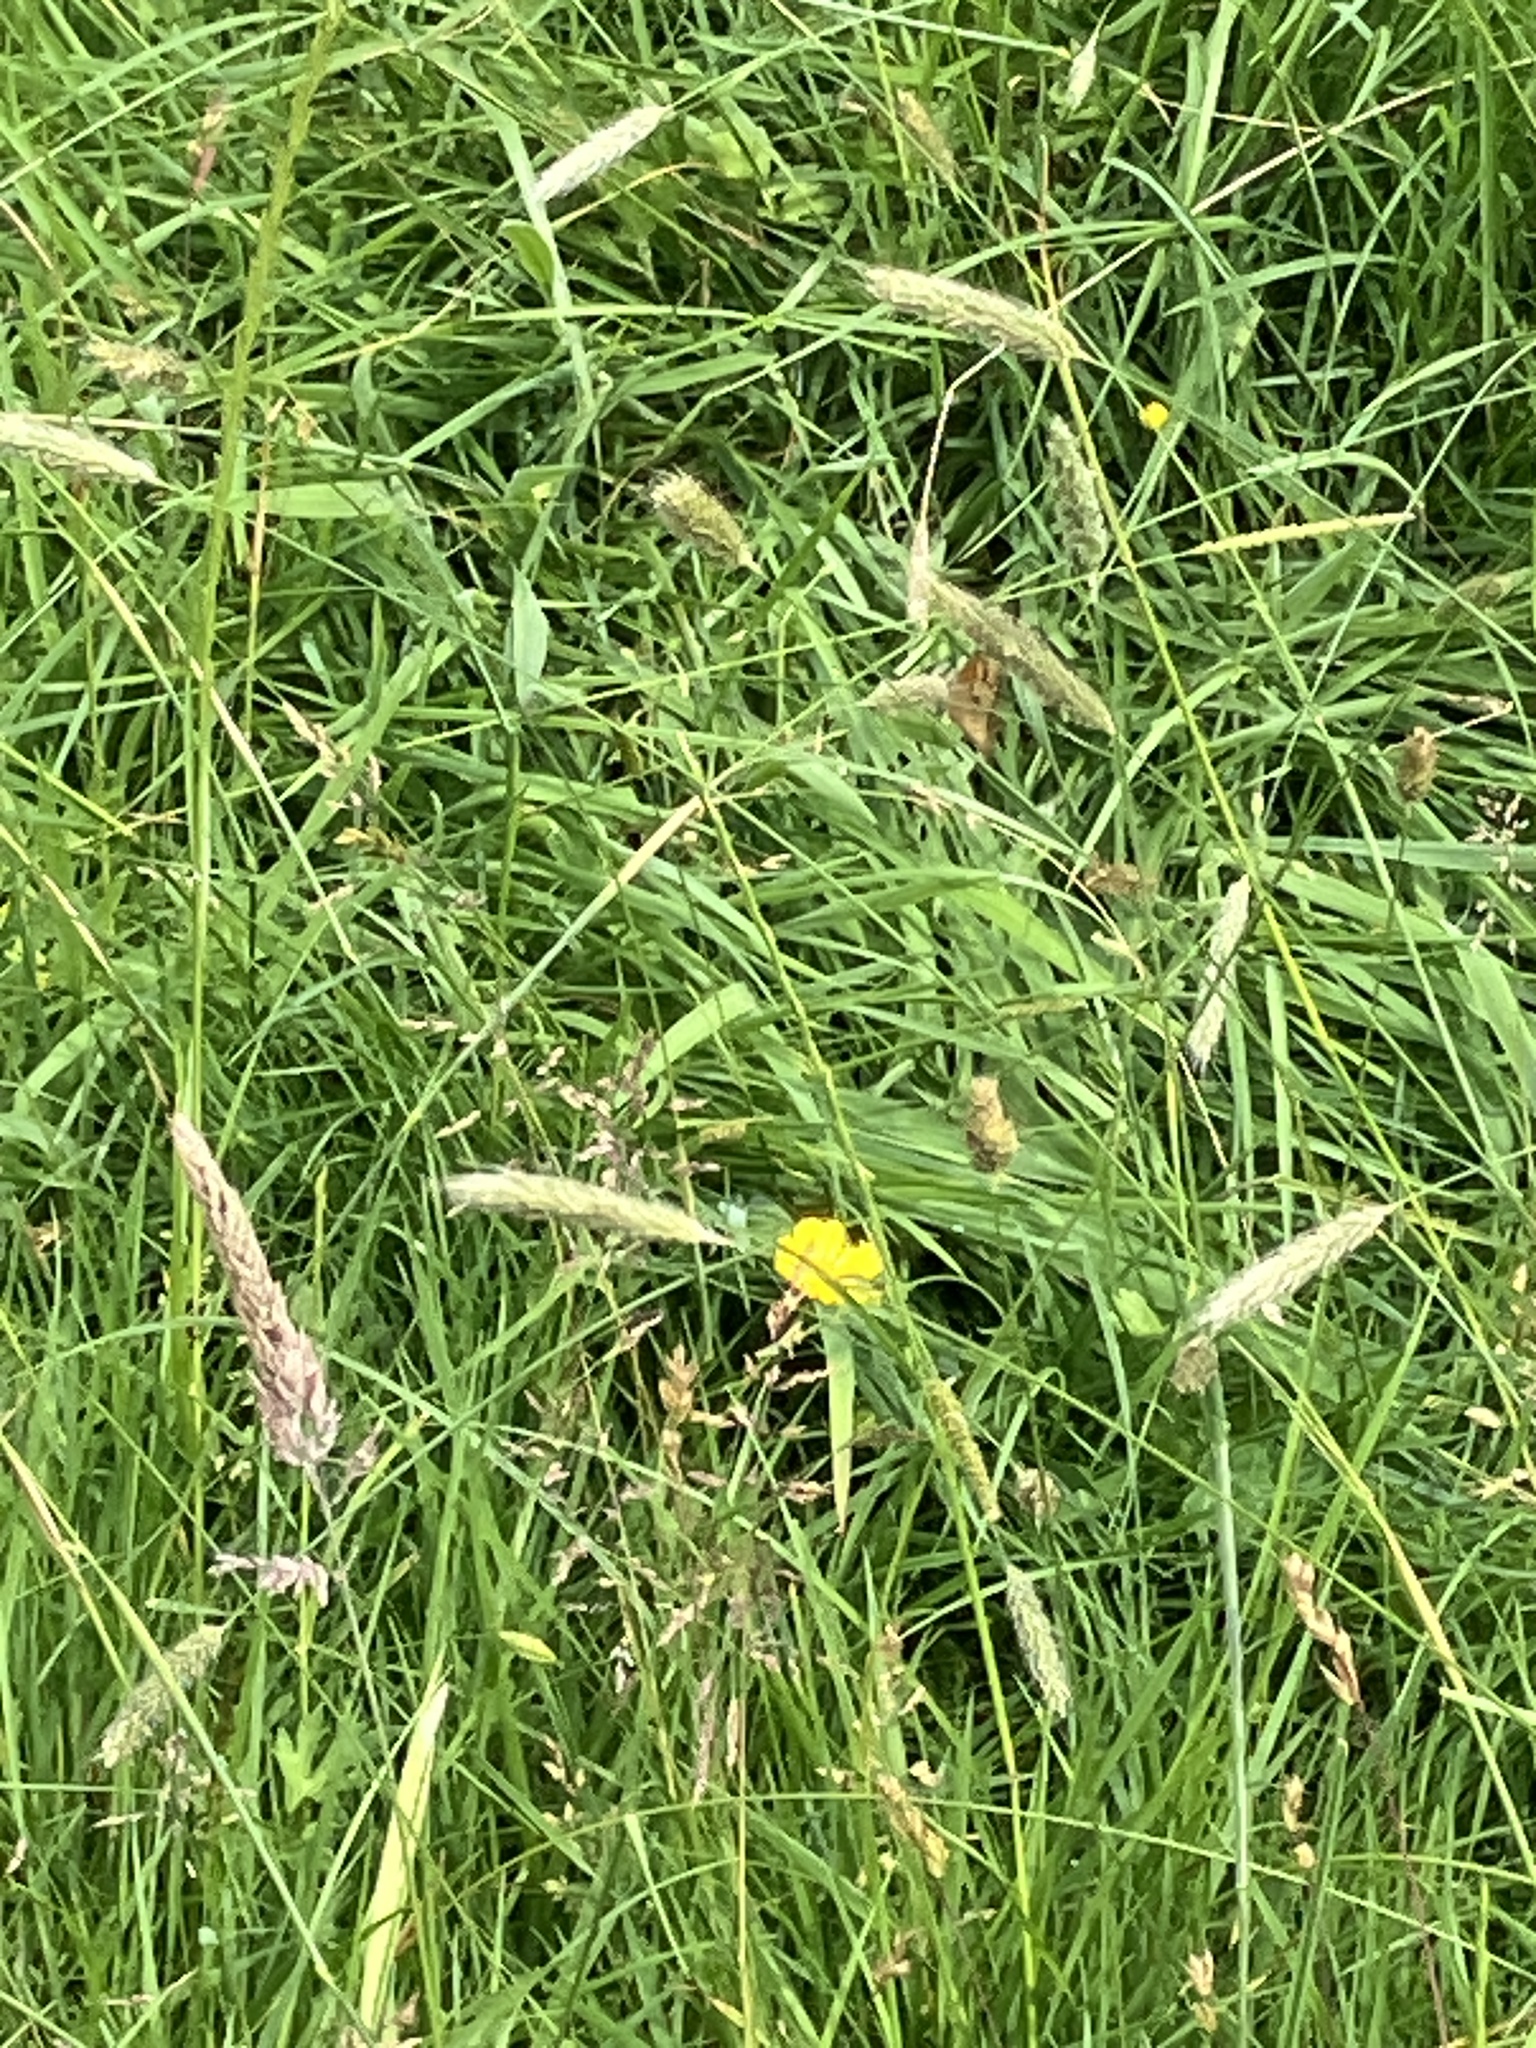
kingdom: Animalia
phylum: Arthropoda
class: Insecta
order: Lepidoptera
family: Nymphalidae
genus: Maniola
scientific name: Maniola jurtina
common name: Meadow brown
